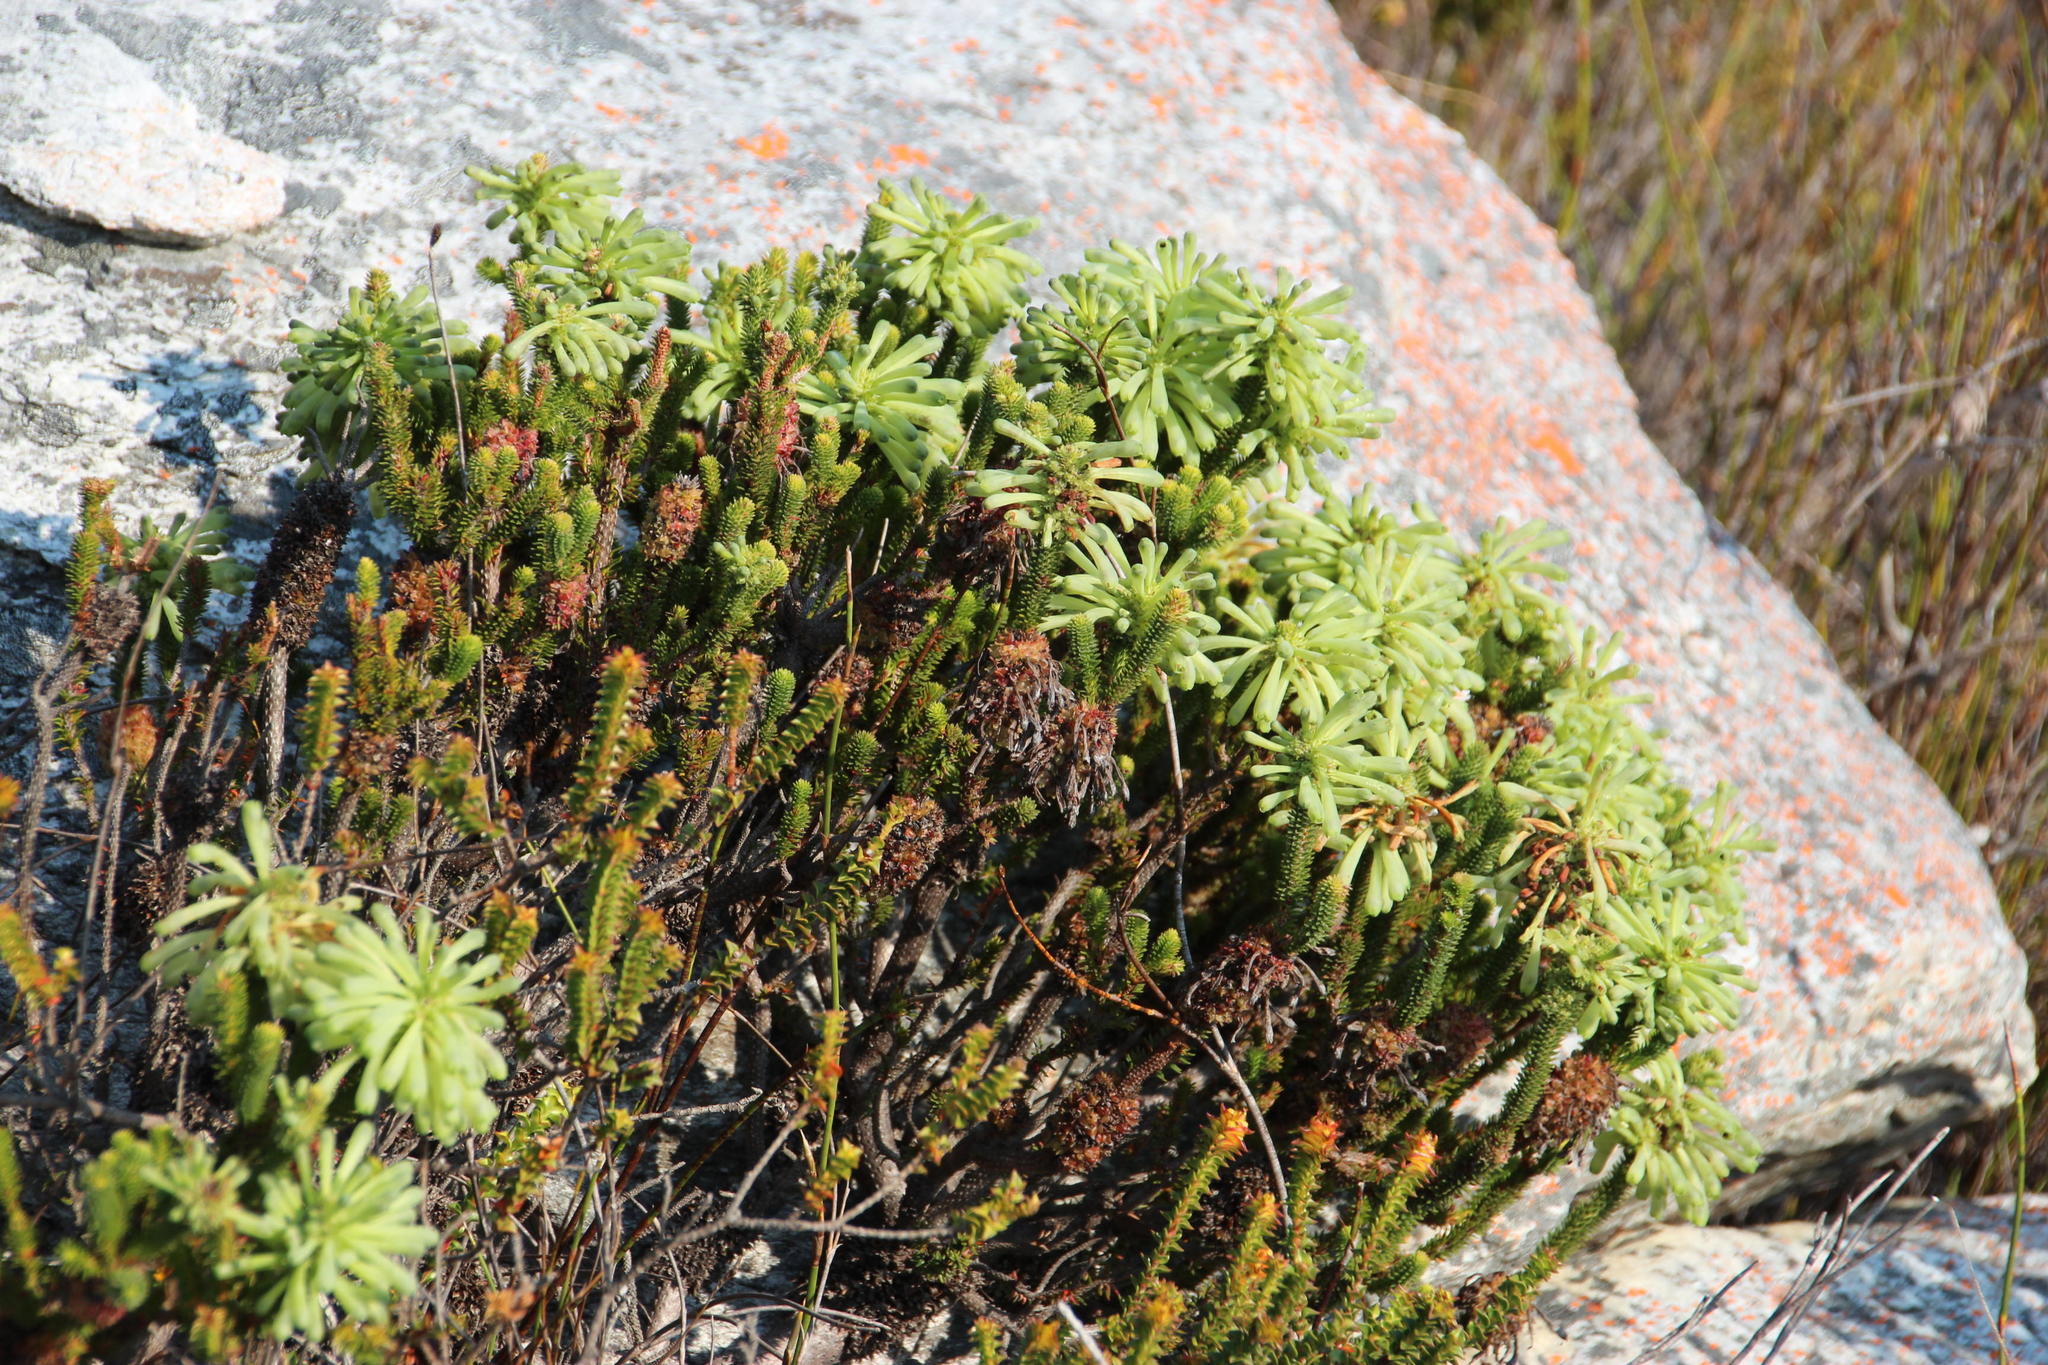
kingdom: Plantae
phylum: Tracheophyta
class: Magnoliopsida
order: Ericales
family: Ericaceae
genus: Erica
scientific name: Erica sessiliflora
